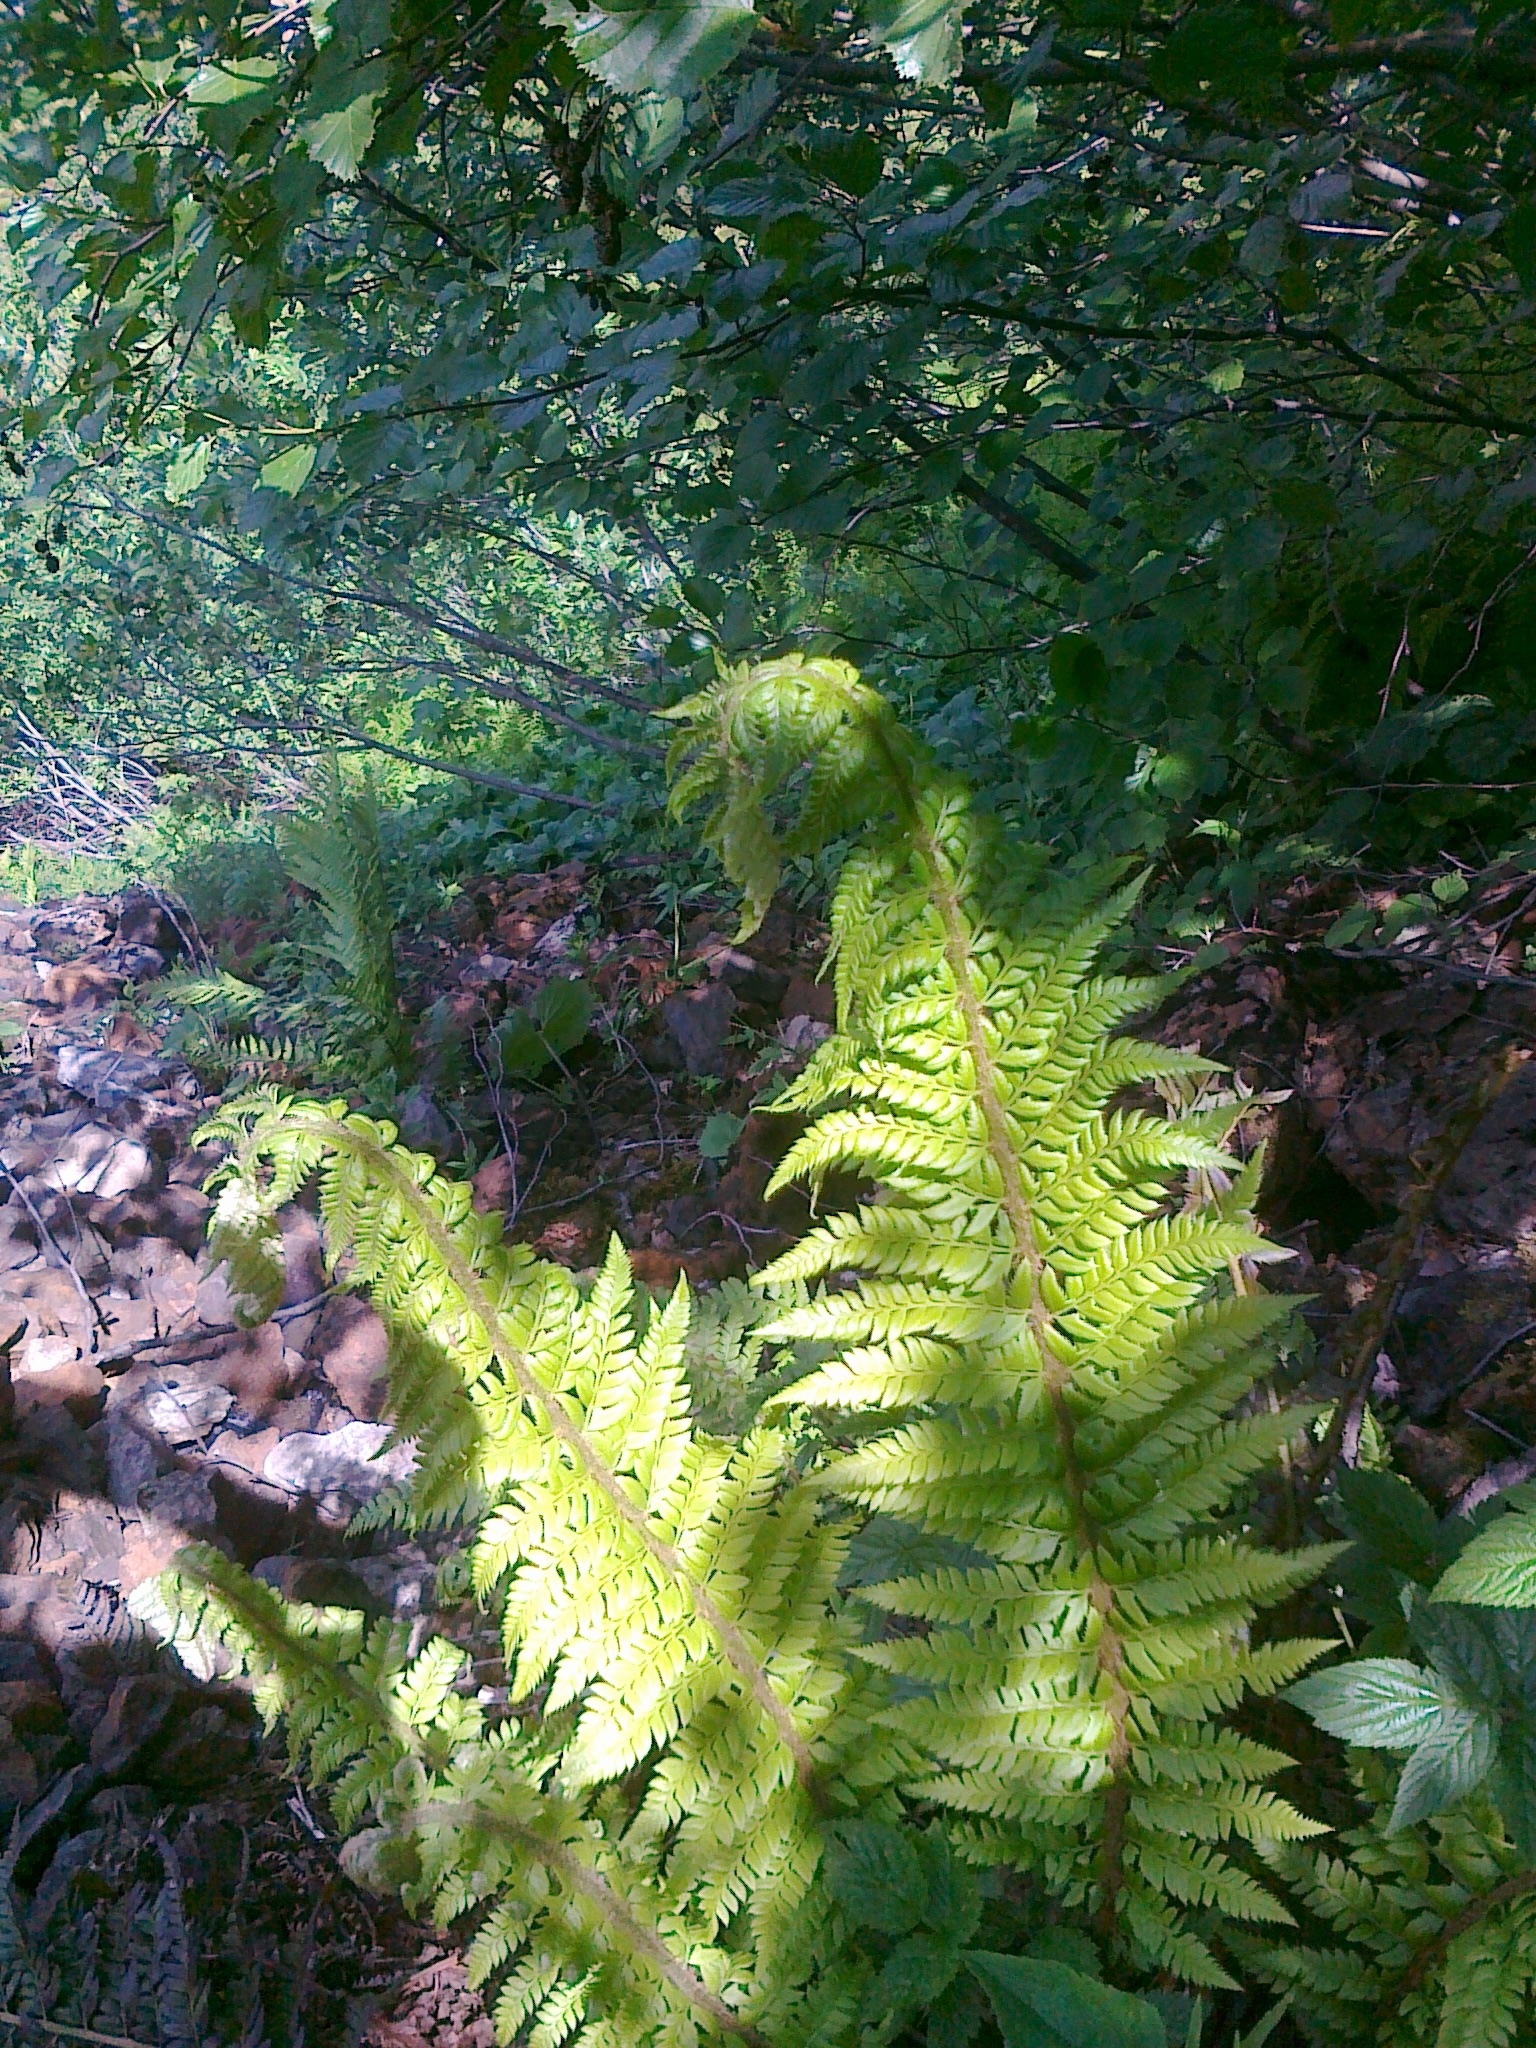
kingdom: Plantae
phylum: Tracheophyta
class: Polypodiopsida
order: Polypodiales
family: Dryopteridaceae
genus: Polystichum
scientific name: Polystichum aculeatum
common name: Hard shield-fern
